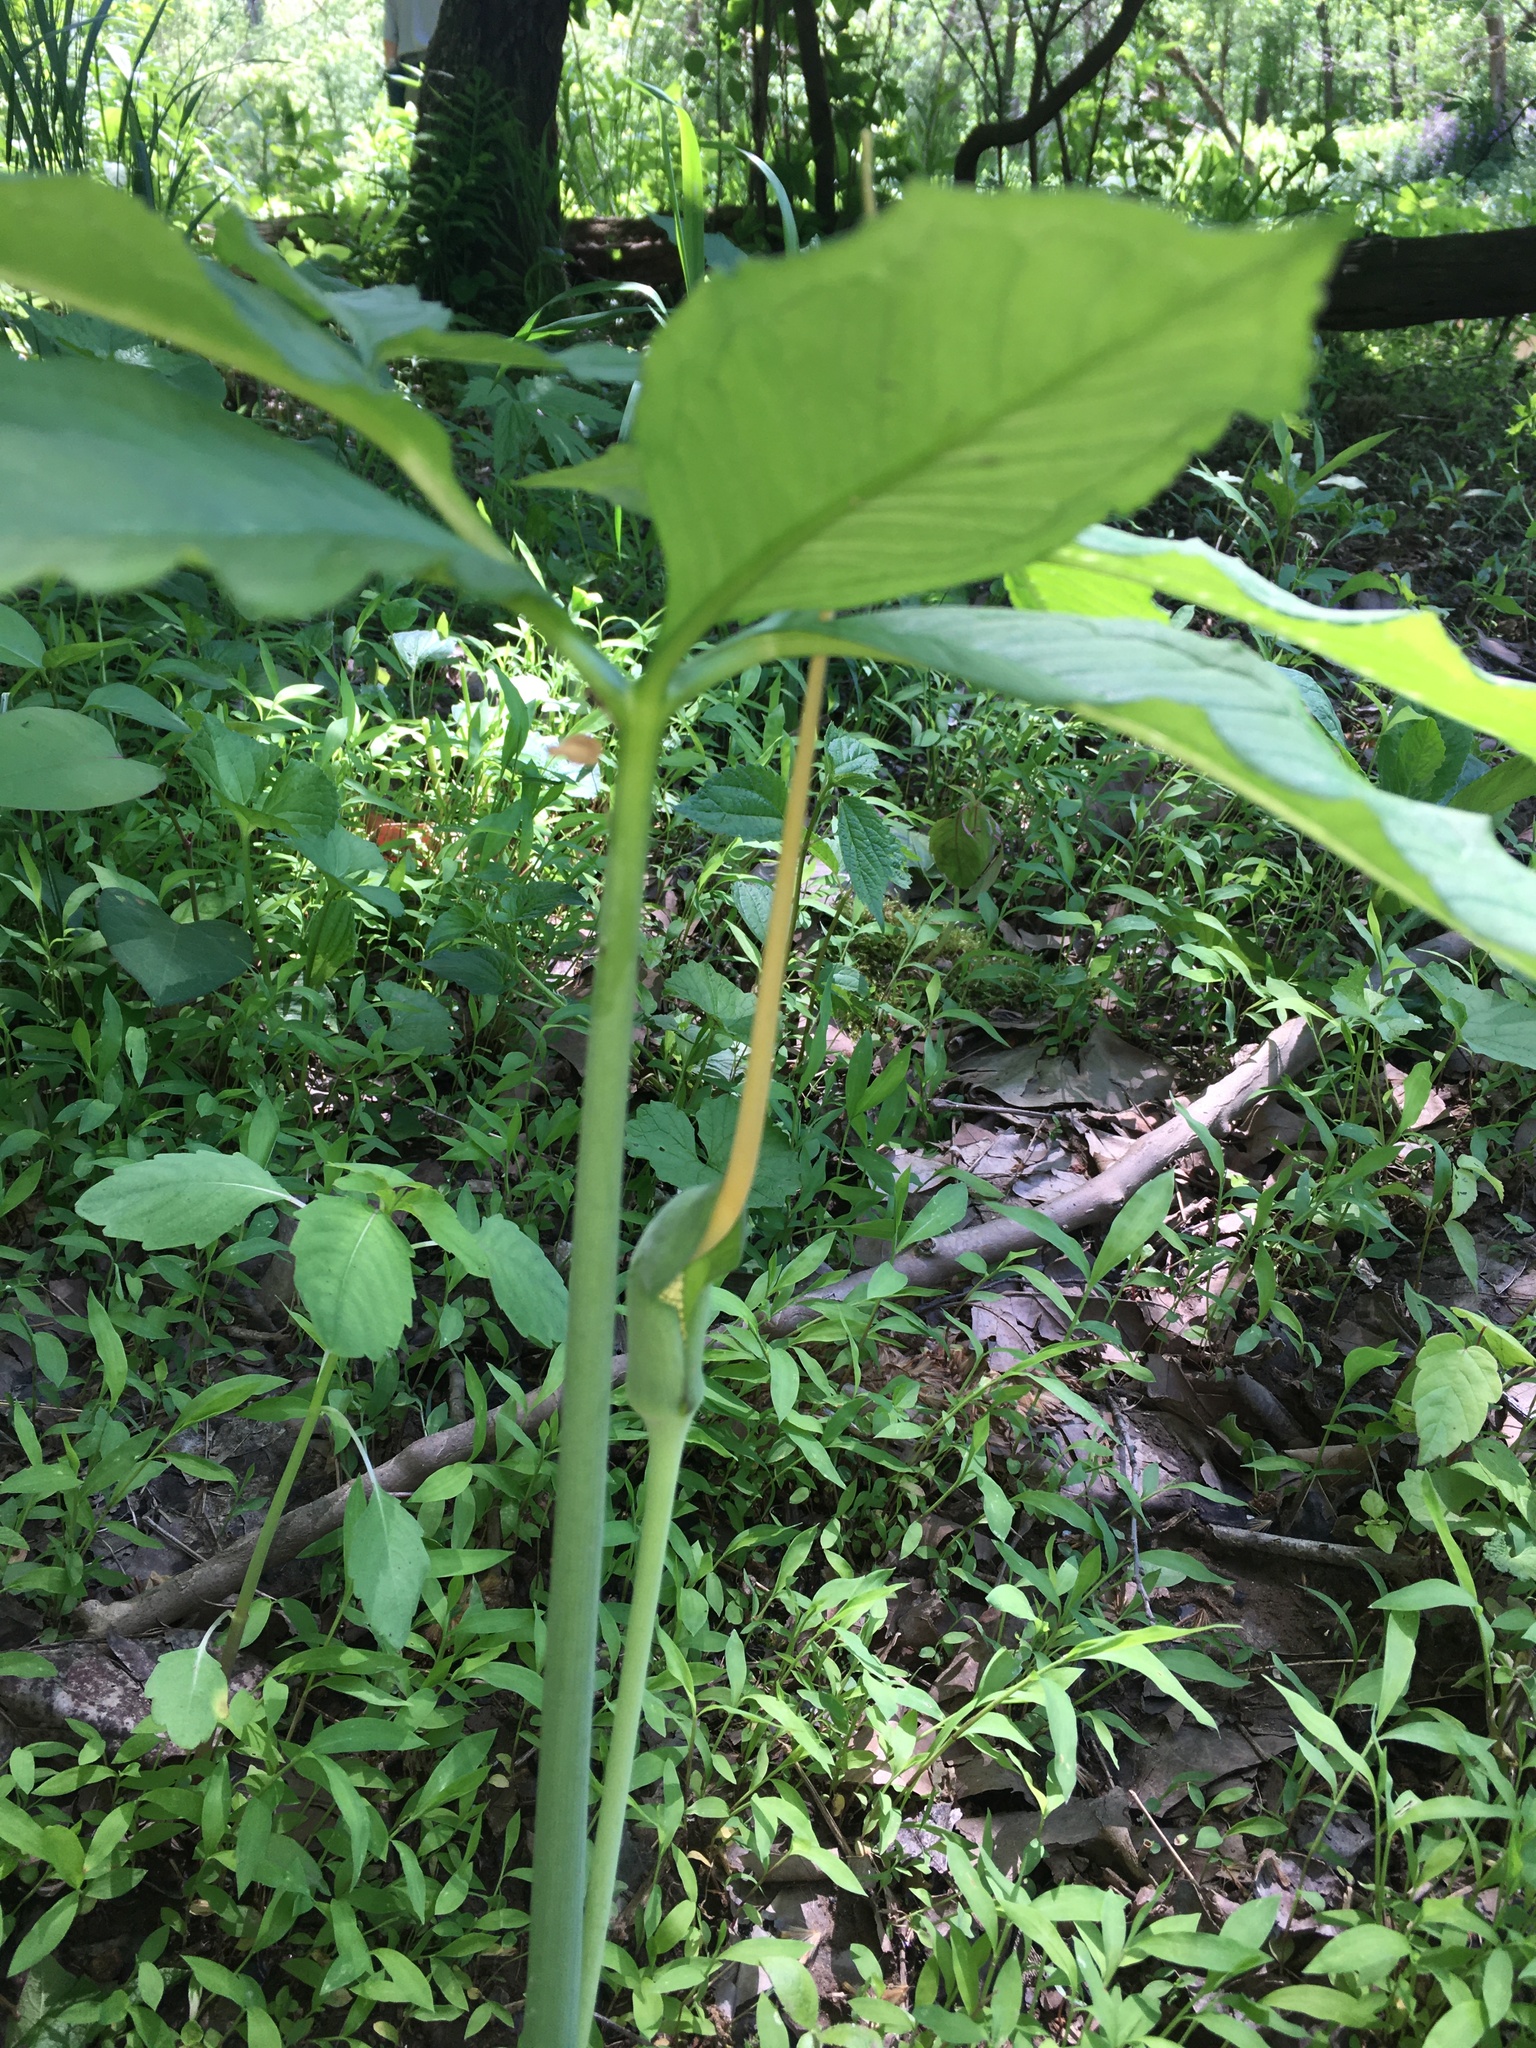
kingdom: Plantae
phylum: Tracheophyta
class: Liliopsida
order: Alismatales
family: Araceae
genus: Arisaema
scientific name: Arisaema dracontium
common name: Dragon-arum
